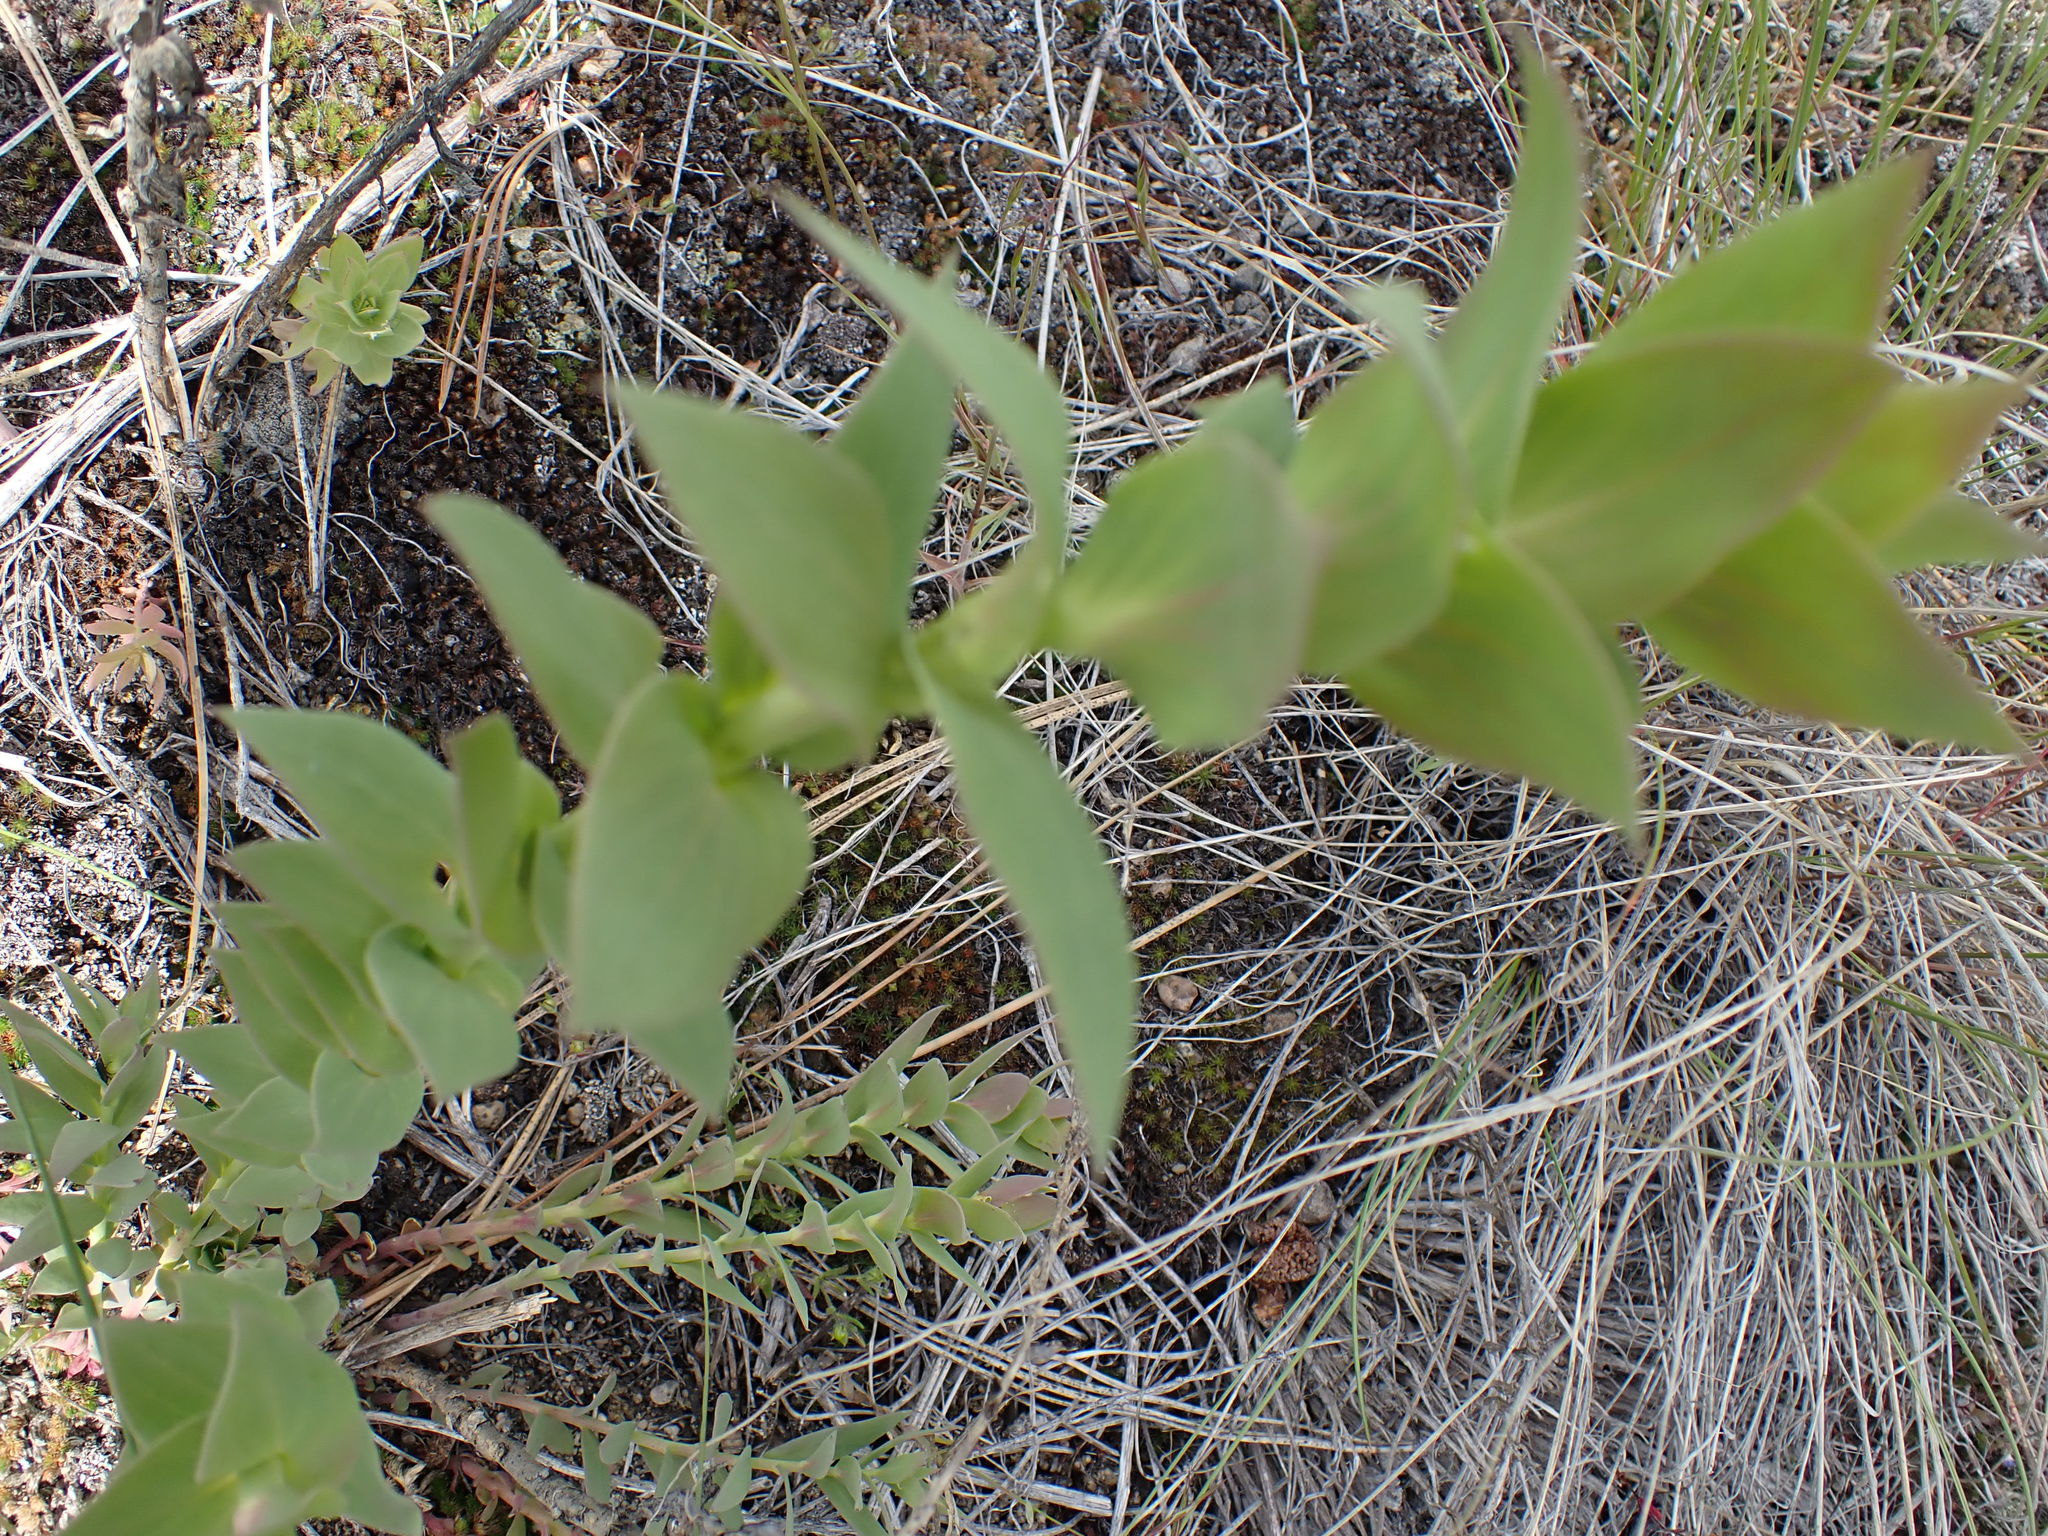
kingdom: Plantae
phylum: Tracheophyta
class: Magnoliopsida
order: Lamiales
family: Plantaginaceae
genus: Linaria
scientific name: Linaria dalmatica
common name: Dalmatian toadflax
